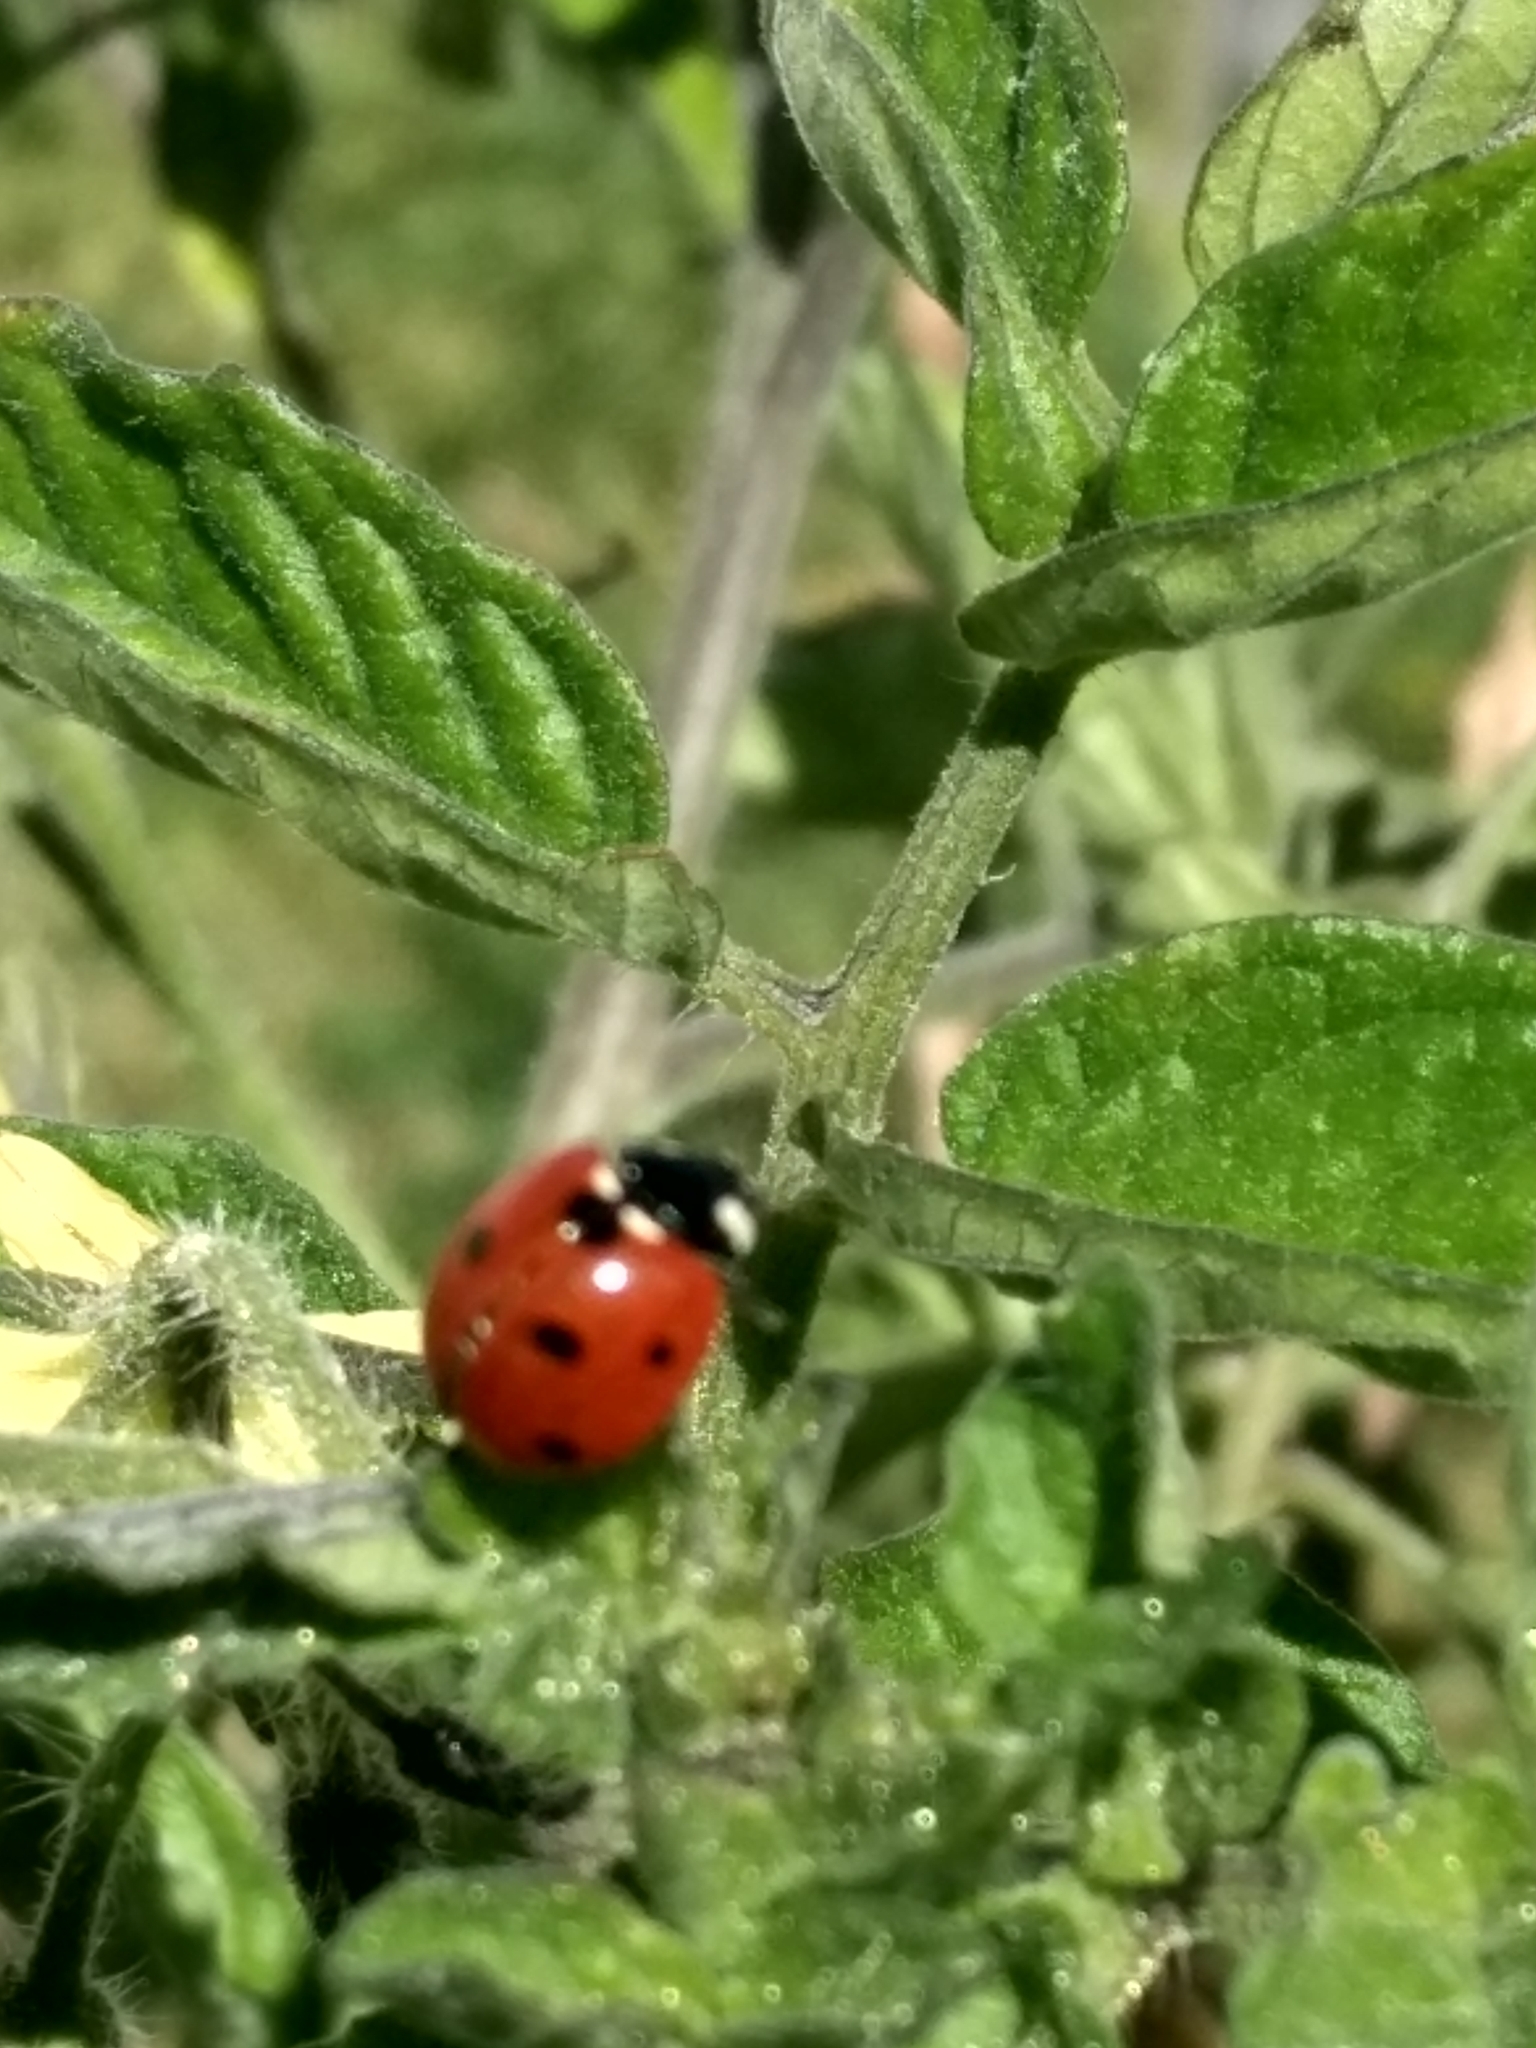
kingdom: Animalia
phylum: Arthropoda
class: Insecta
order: Coleoptera
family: Coccinellidae
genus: Coccinella
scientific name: Coccinella septempunctata
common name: Sevenspotted lady beetle
